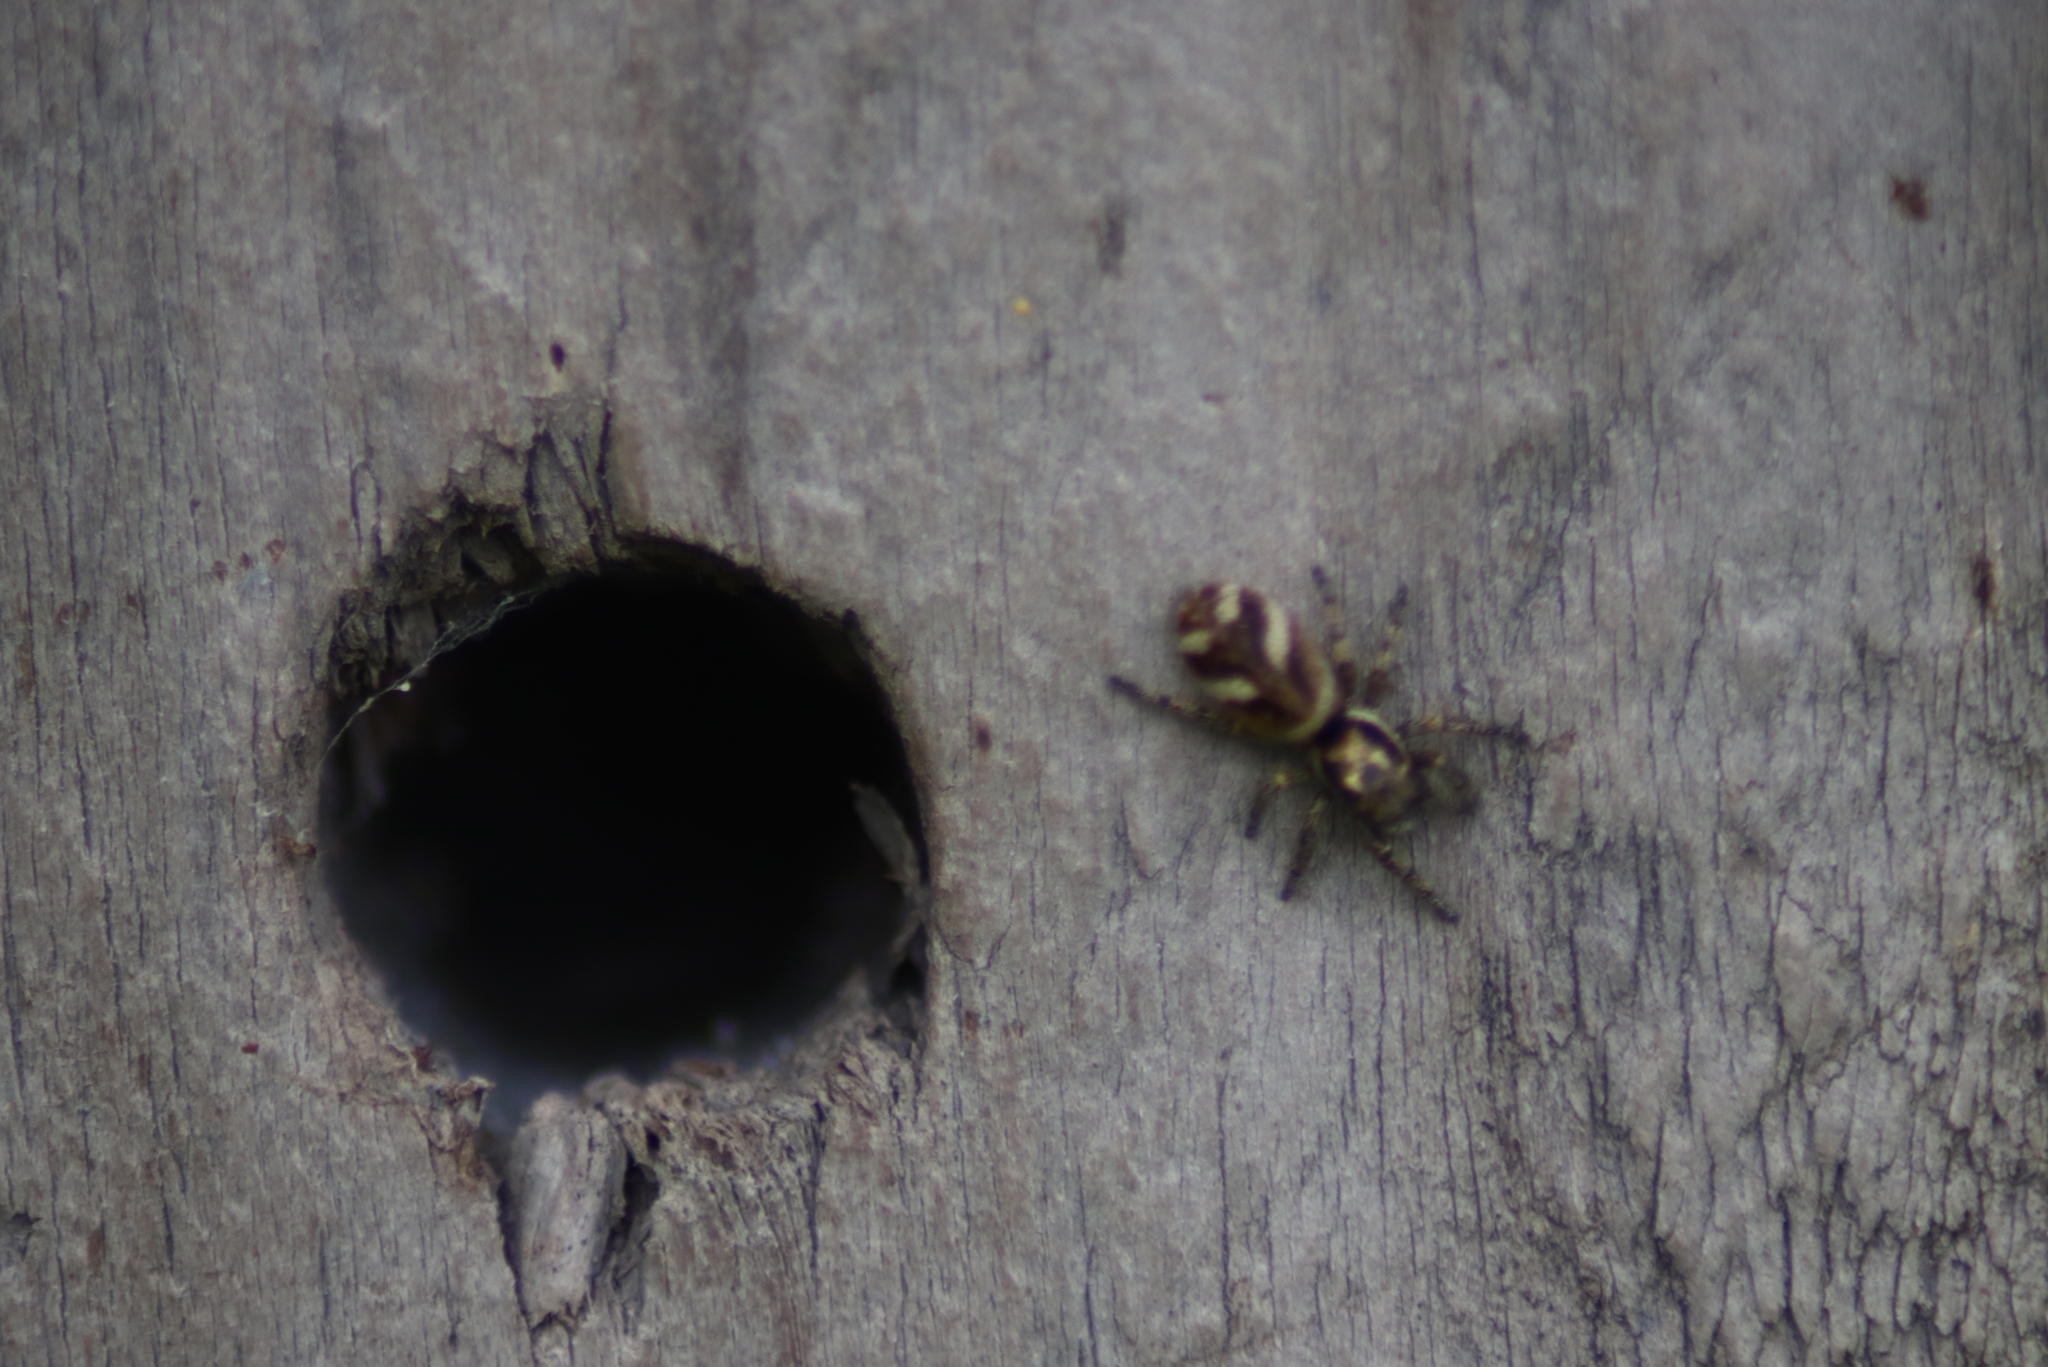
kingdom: Animalia
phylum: Arthropoda
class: Arachnida
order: Araneae
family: Salticidae
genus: Salticus
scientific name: Salticus scenicus
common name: Zebra jumper
